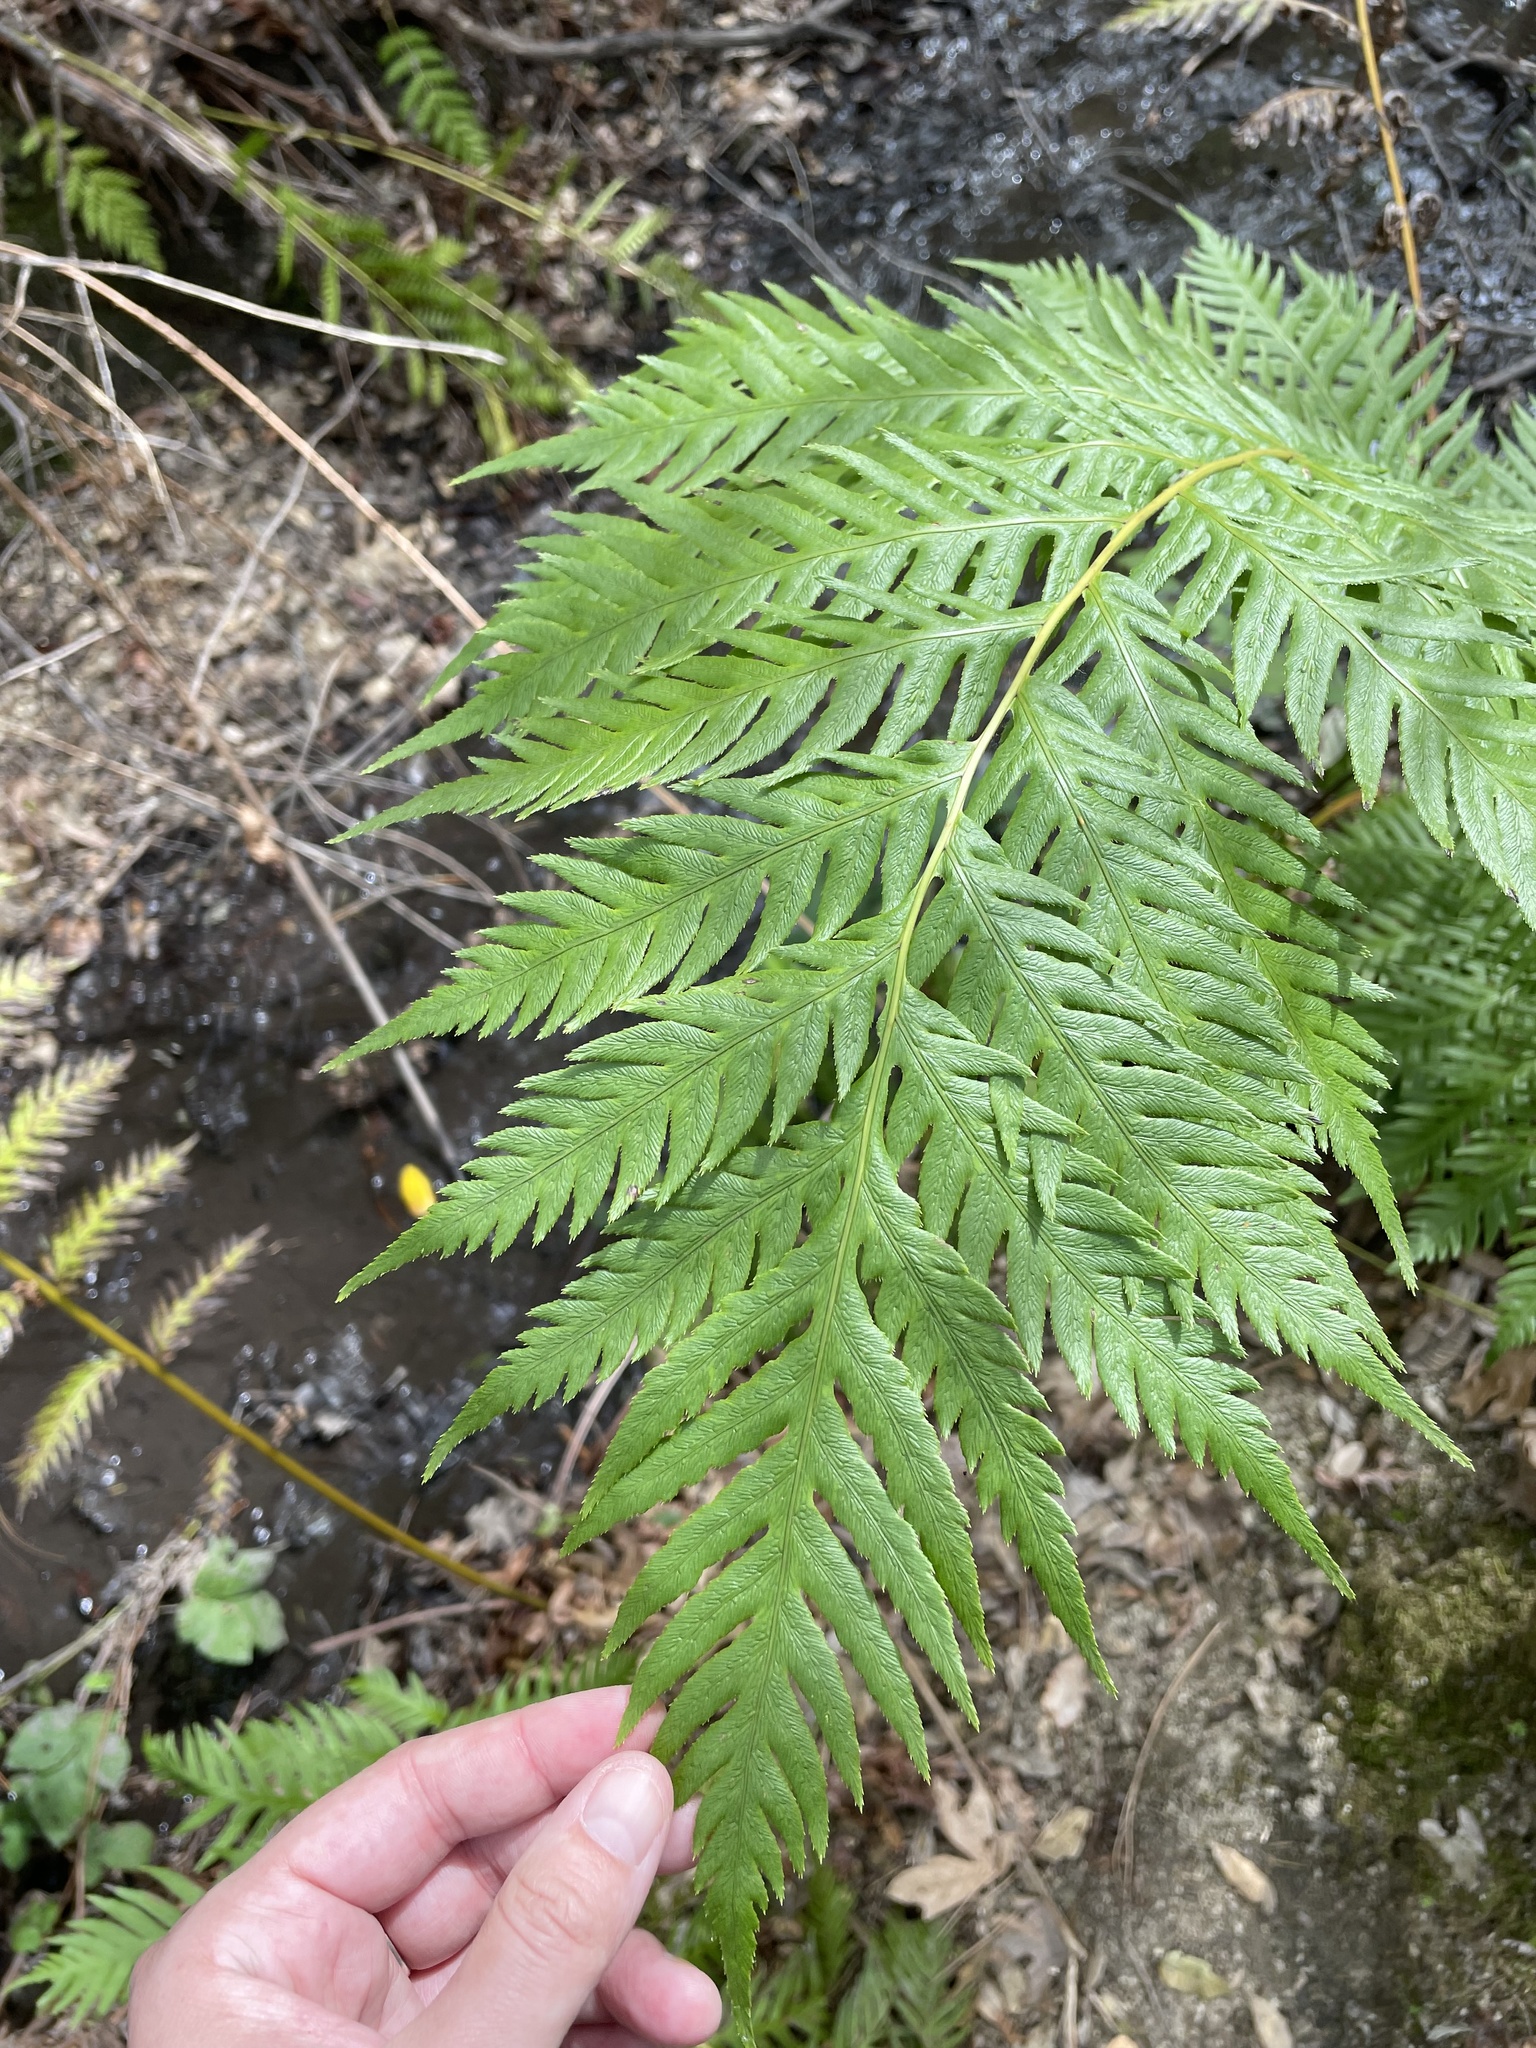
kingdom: Plantae
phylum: Tracheophyta
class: Polypodiopsida
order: Polypodiales
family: Blechnaceae
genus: Woodwardia
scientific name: Woodwardia fimbriata
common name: Giant chain fern
